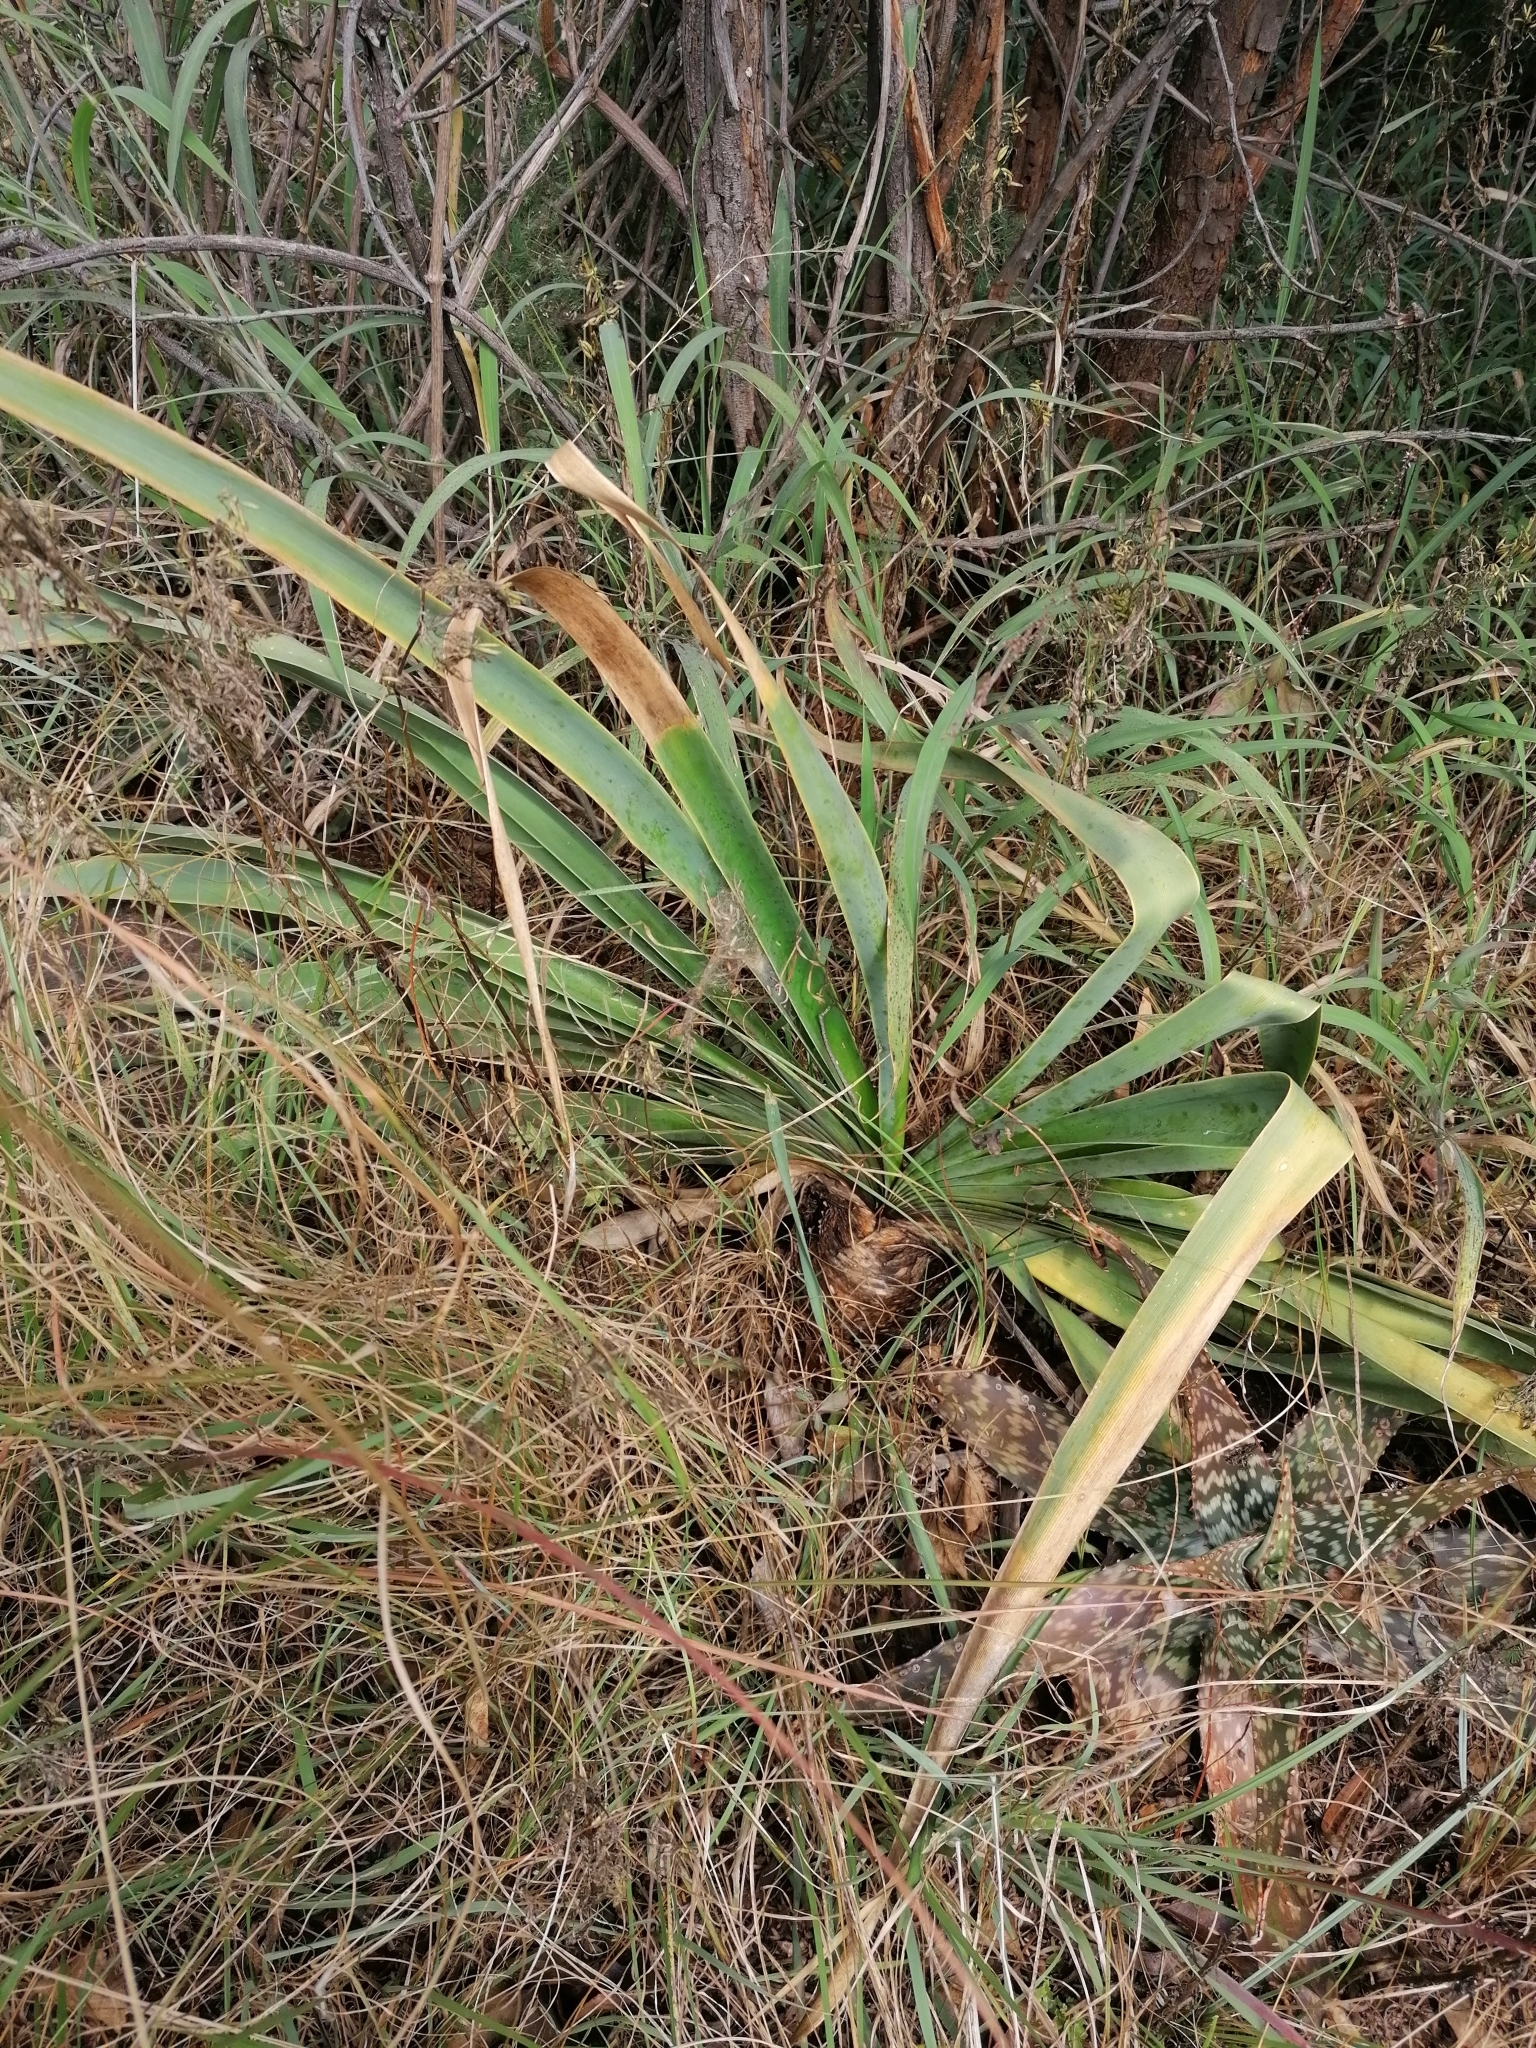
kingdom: Plantae
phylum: Tracheophyta
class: Liliopsida
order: Asparagales
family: Amaryllidaceae
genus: Boophone
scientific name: Boophone disticha
